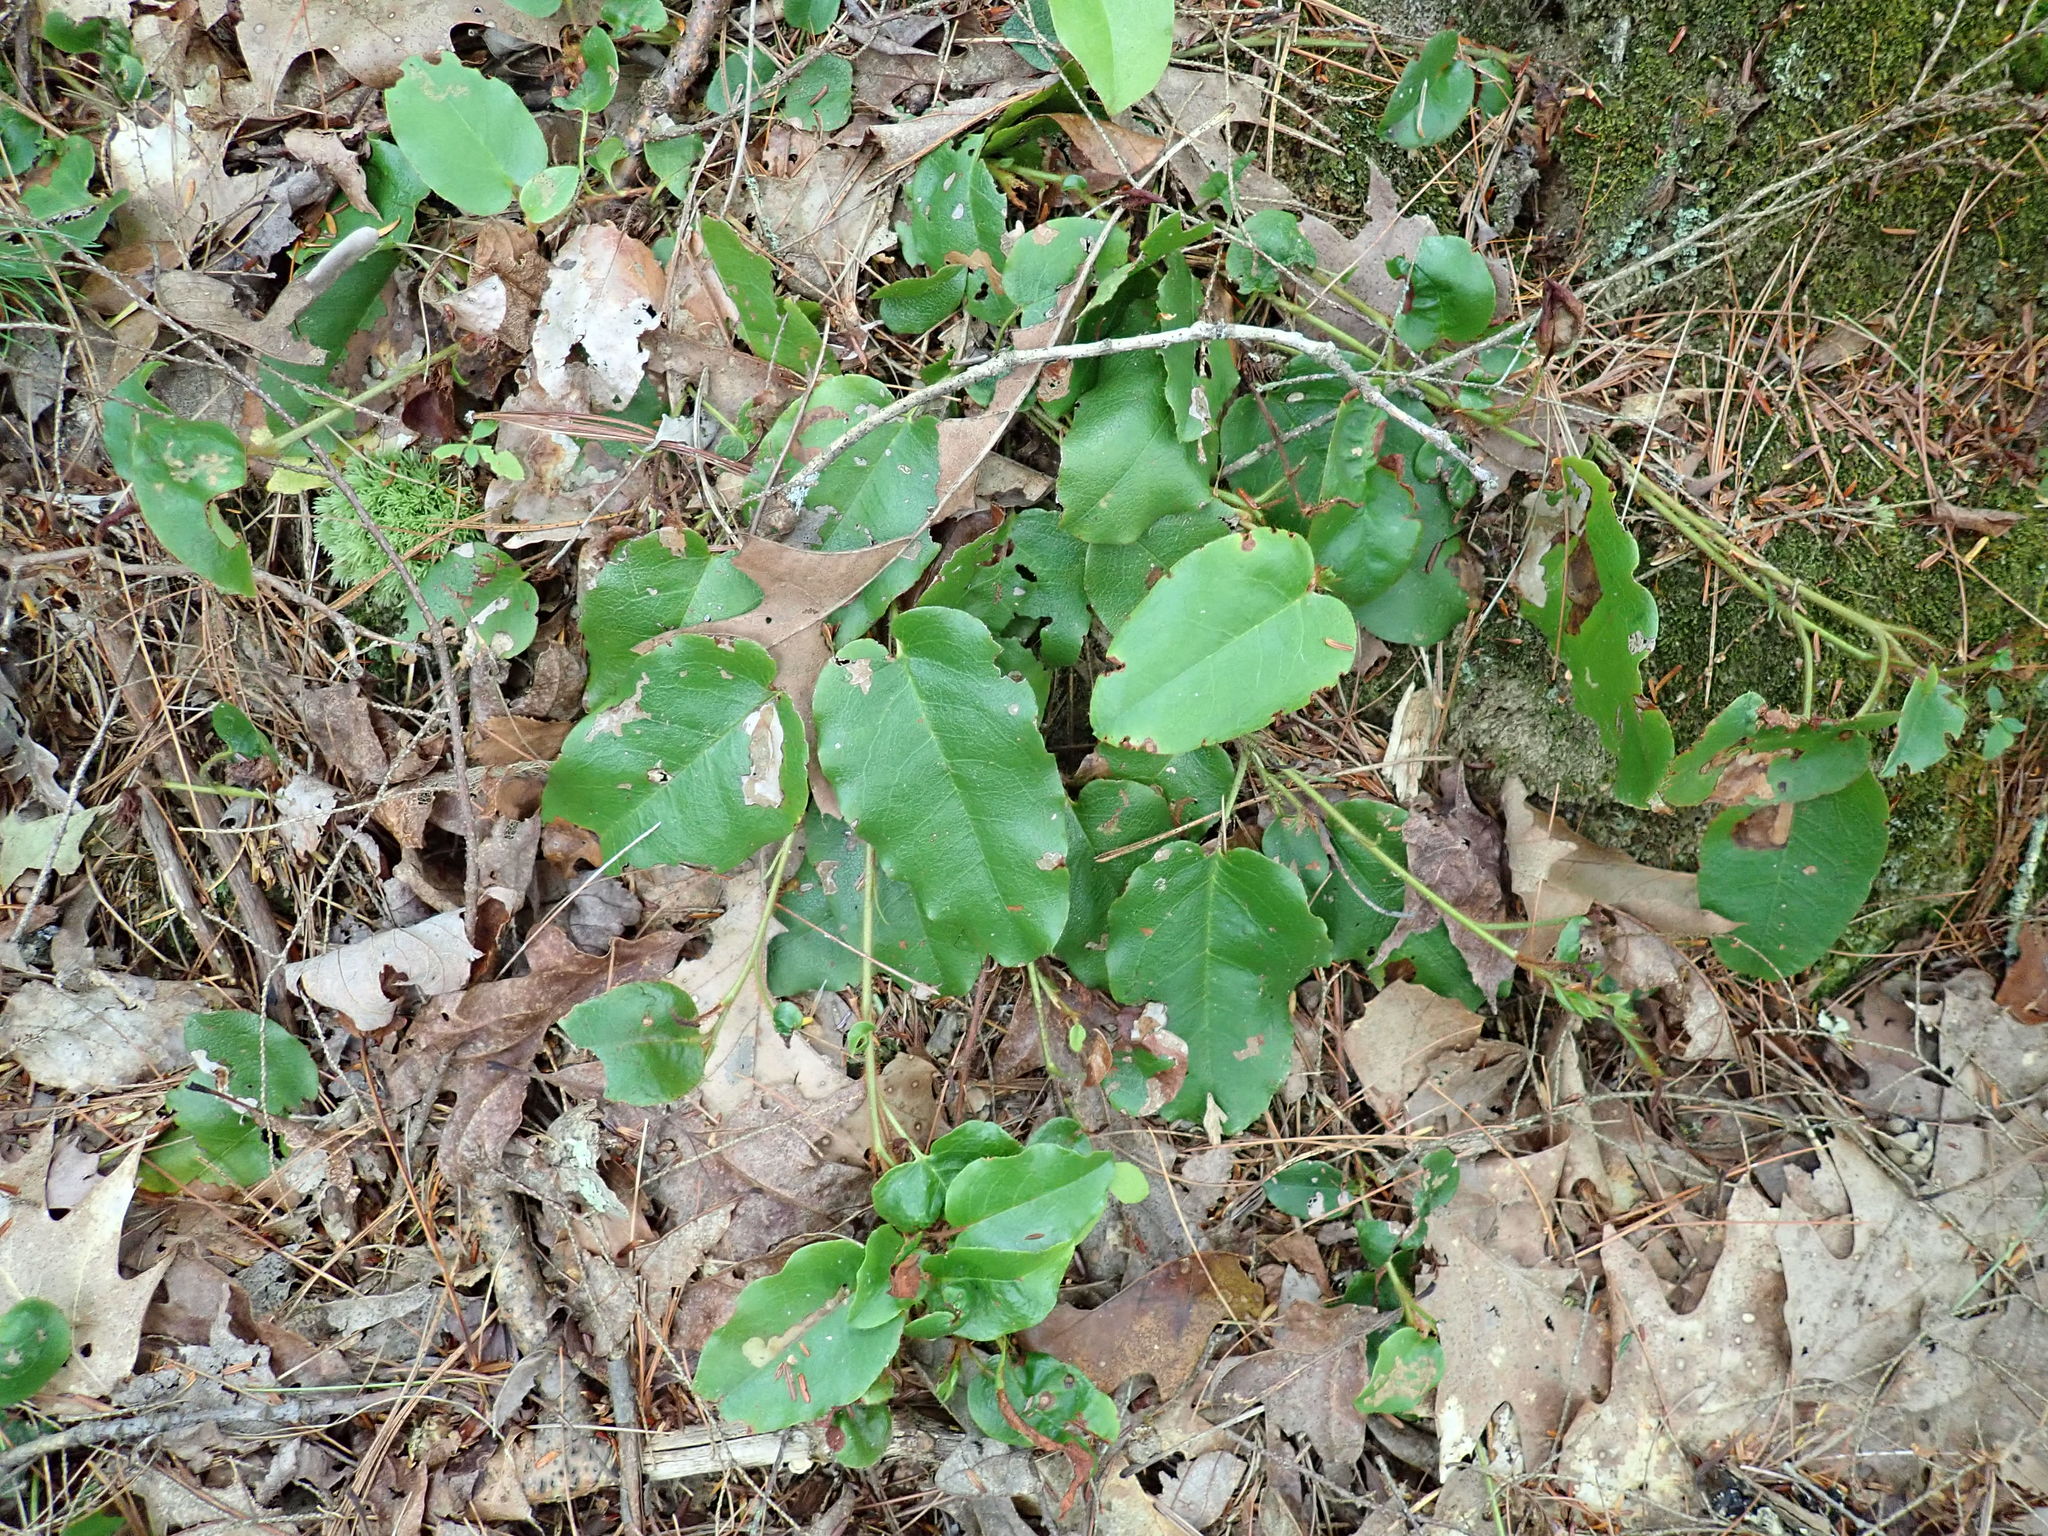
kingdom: Plantae
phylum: Tracheophyta
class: Magnoliopsida
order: Ericales
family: Ericaceae
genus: Epigaea
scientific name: Epigaea repens
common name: Gravelroot
